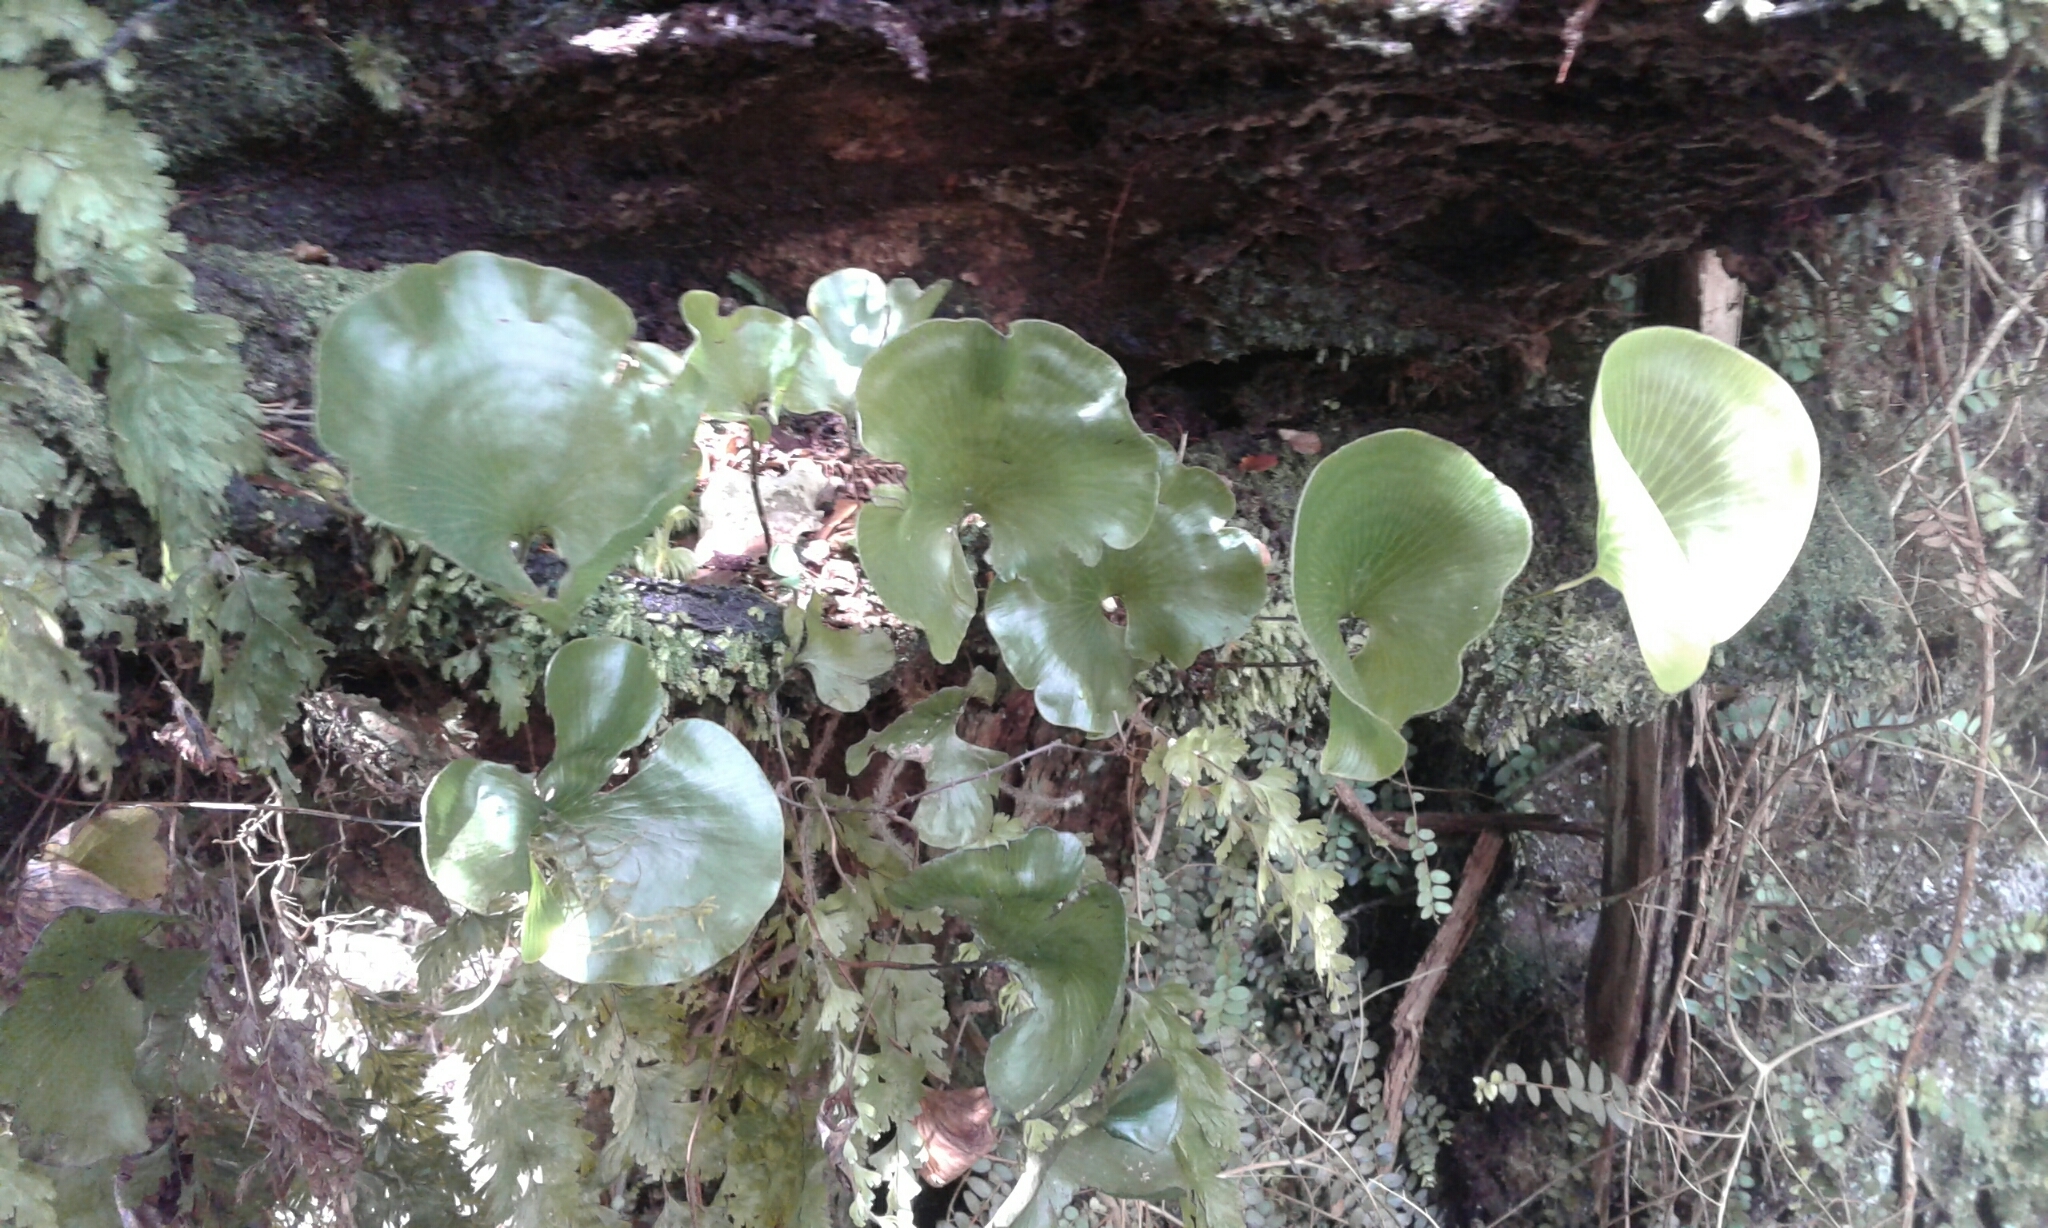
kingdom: Plantae
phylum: Tracheophyta
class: Polypodiopsida
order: Hymenophyllales
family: Hymenophyllaceae
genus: Hymenophyllum
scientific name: Hymenophyllum nephrophyllum
